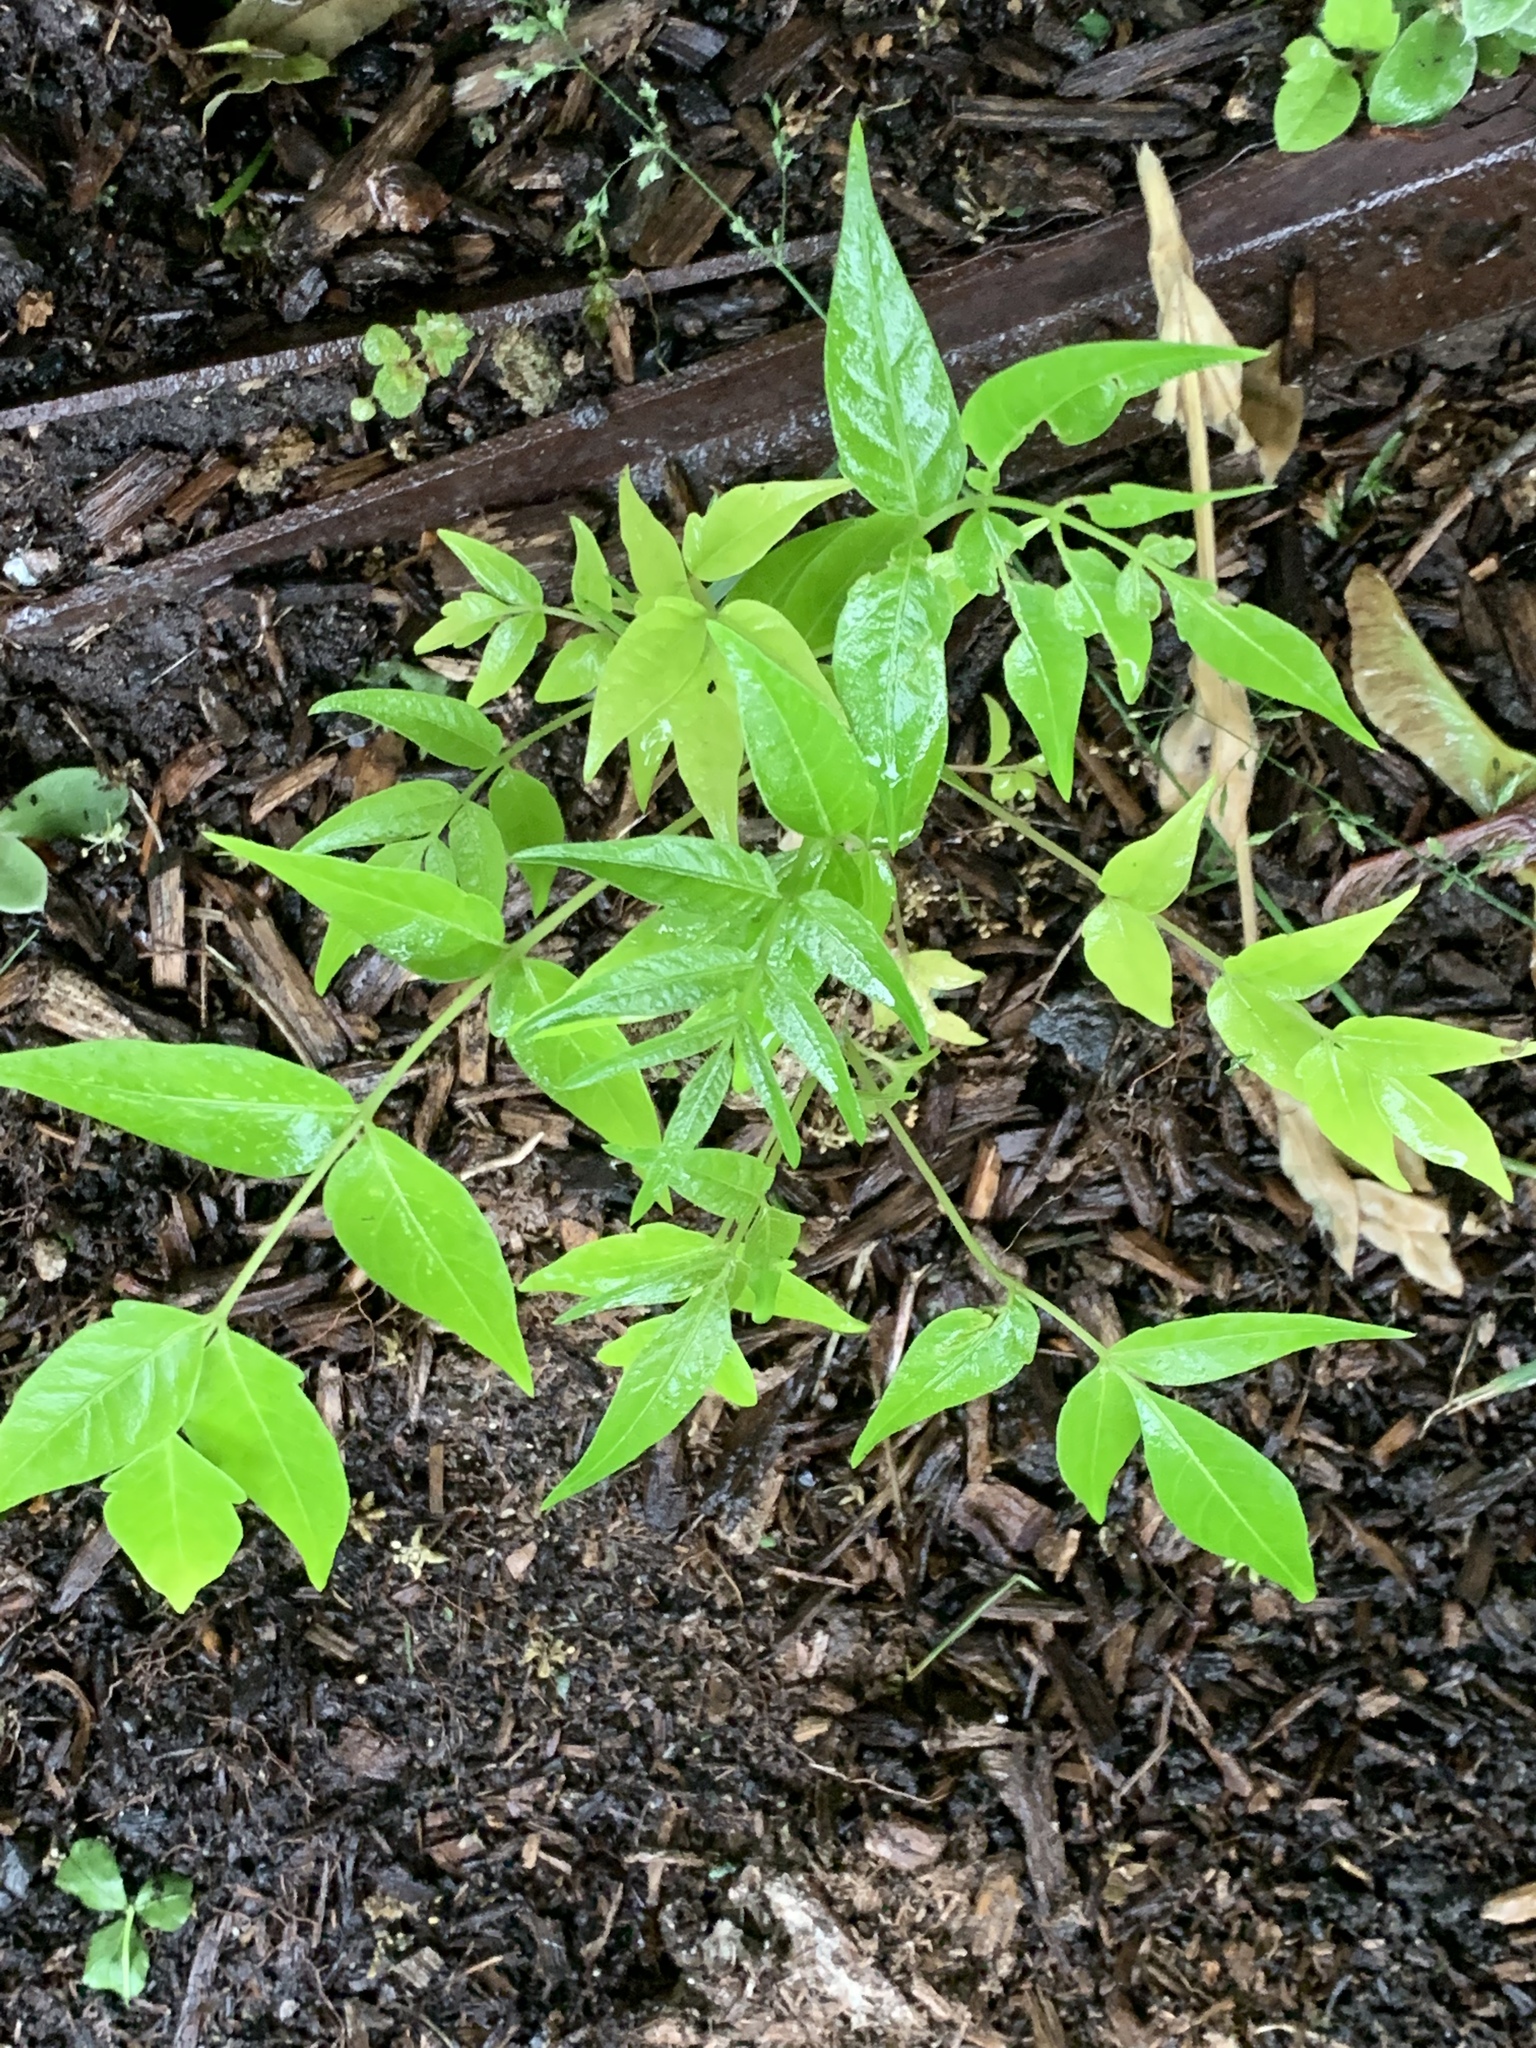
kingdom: Plantae
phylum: Tracheophyta
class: Magnoliopsida
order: Sapindales
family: Simaroubaceae
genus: Ailanthus
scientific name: Ailanthus altissima
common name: Tree-of-heaven
